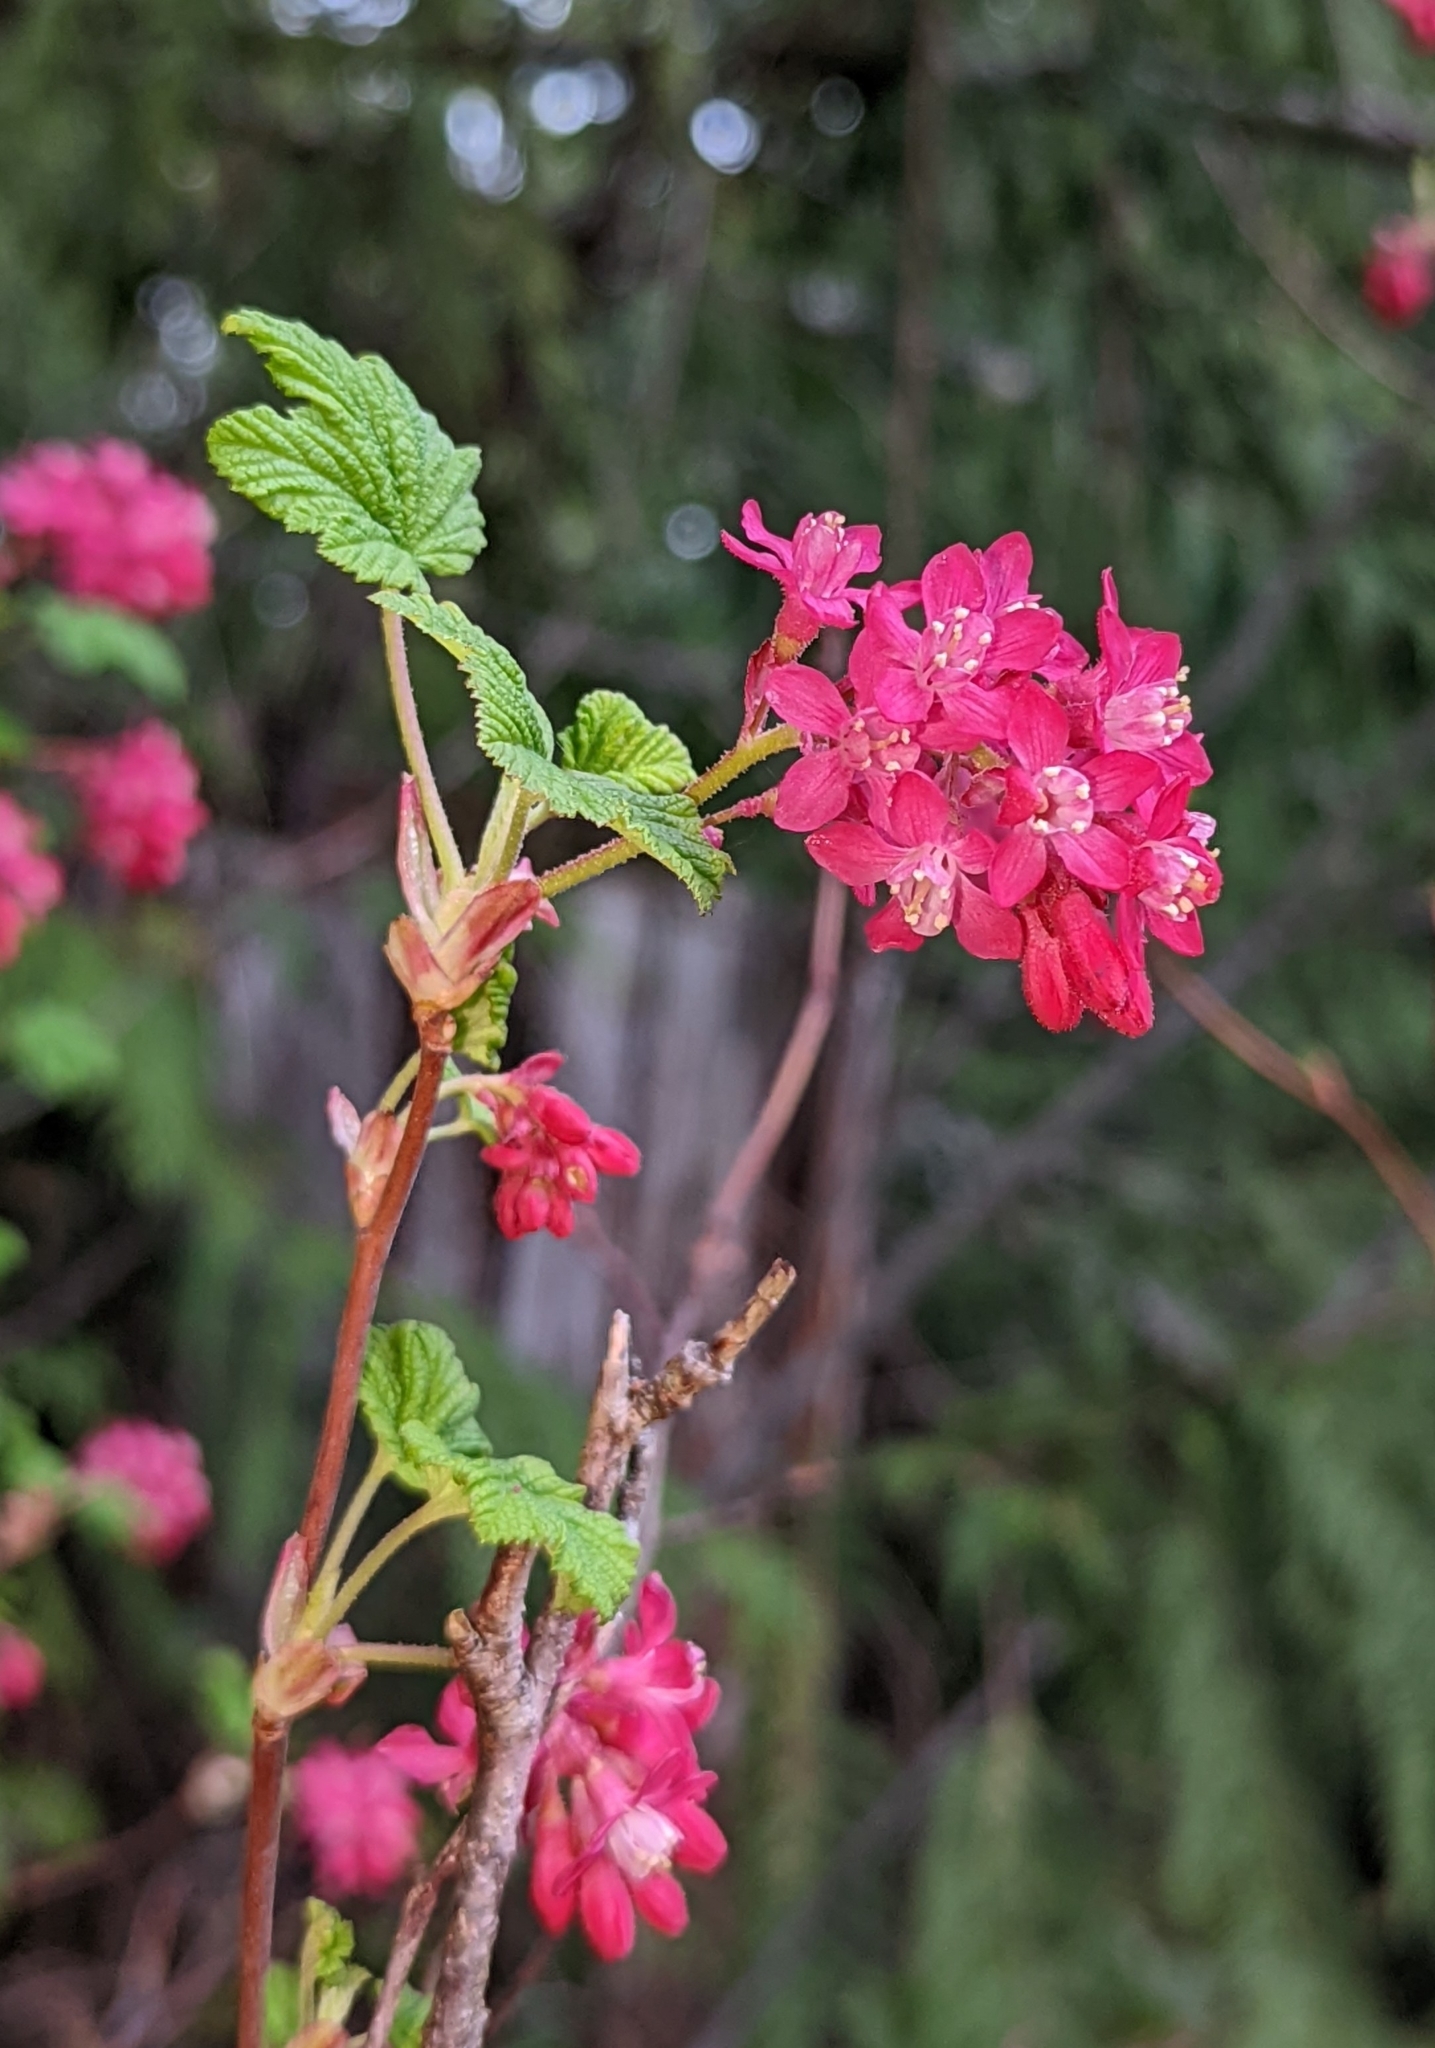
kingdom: Plantae
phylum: Tracheophyta
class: Magnoliopsida
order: Saxifragales
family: Grossulariaceae
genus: Ribes
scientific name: Ribes sanguineum
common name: Flowering currant
